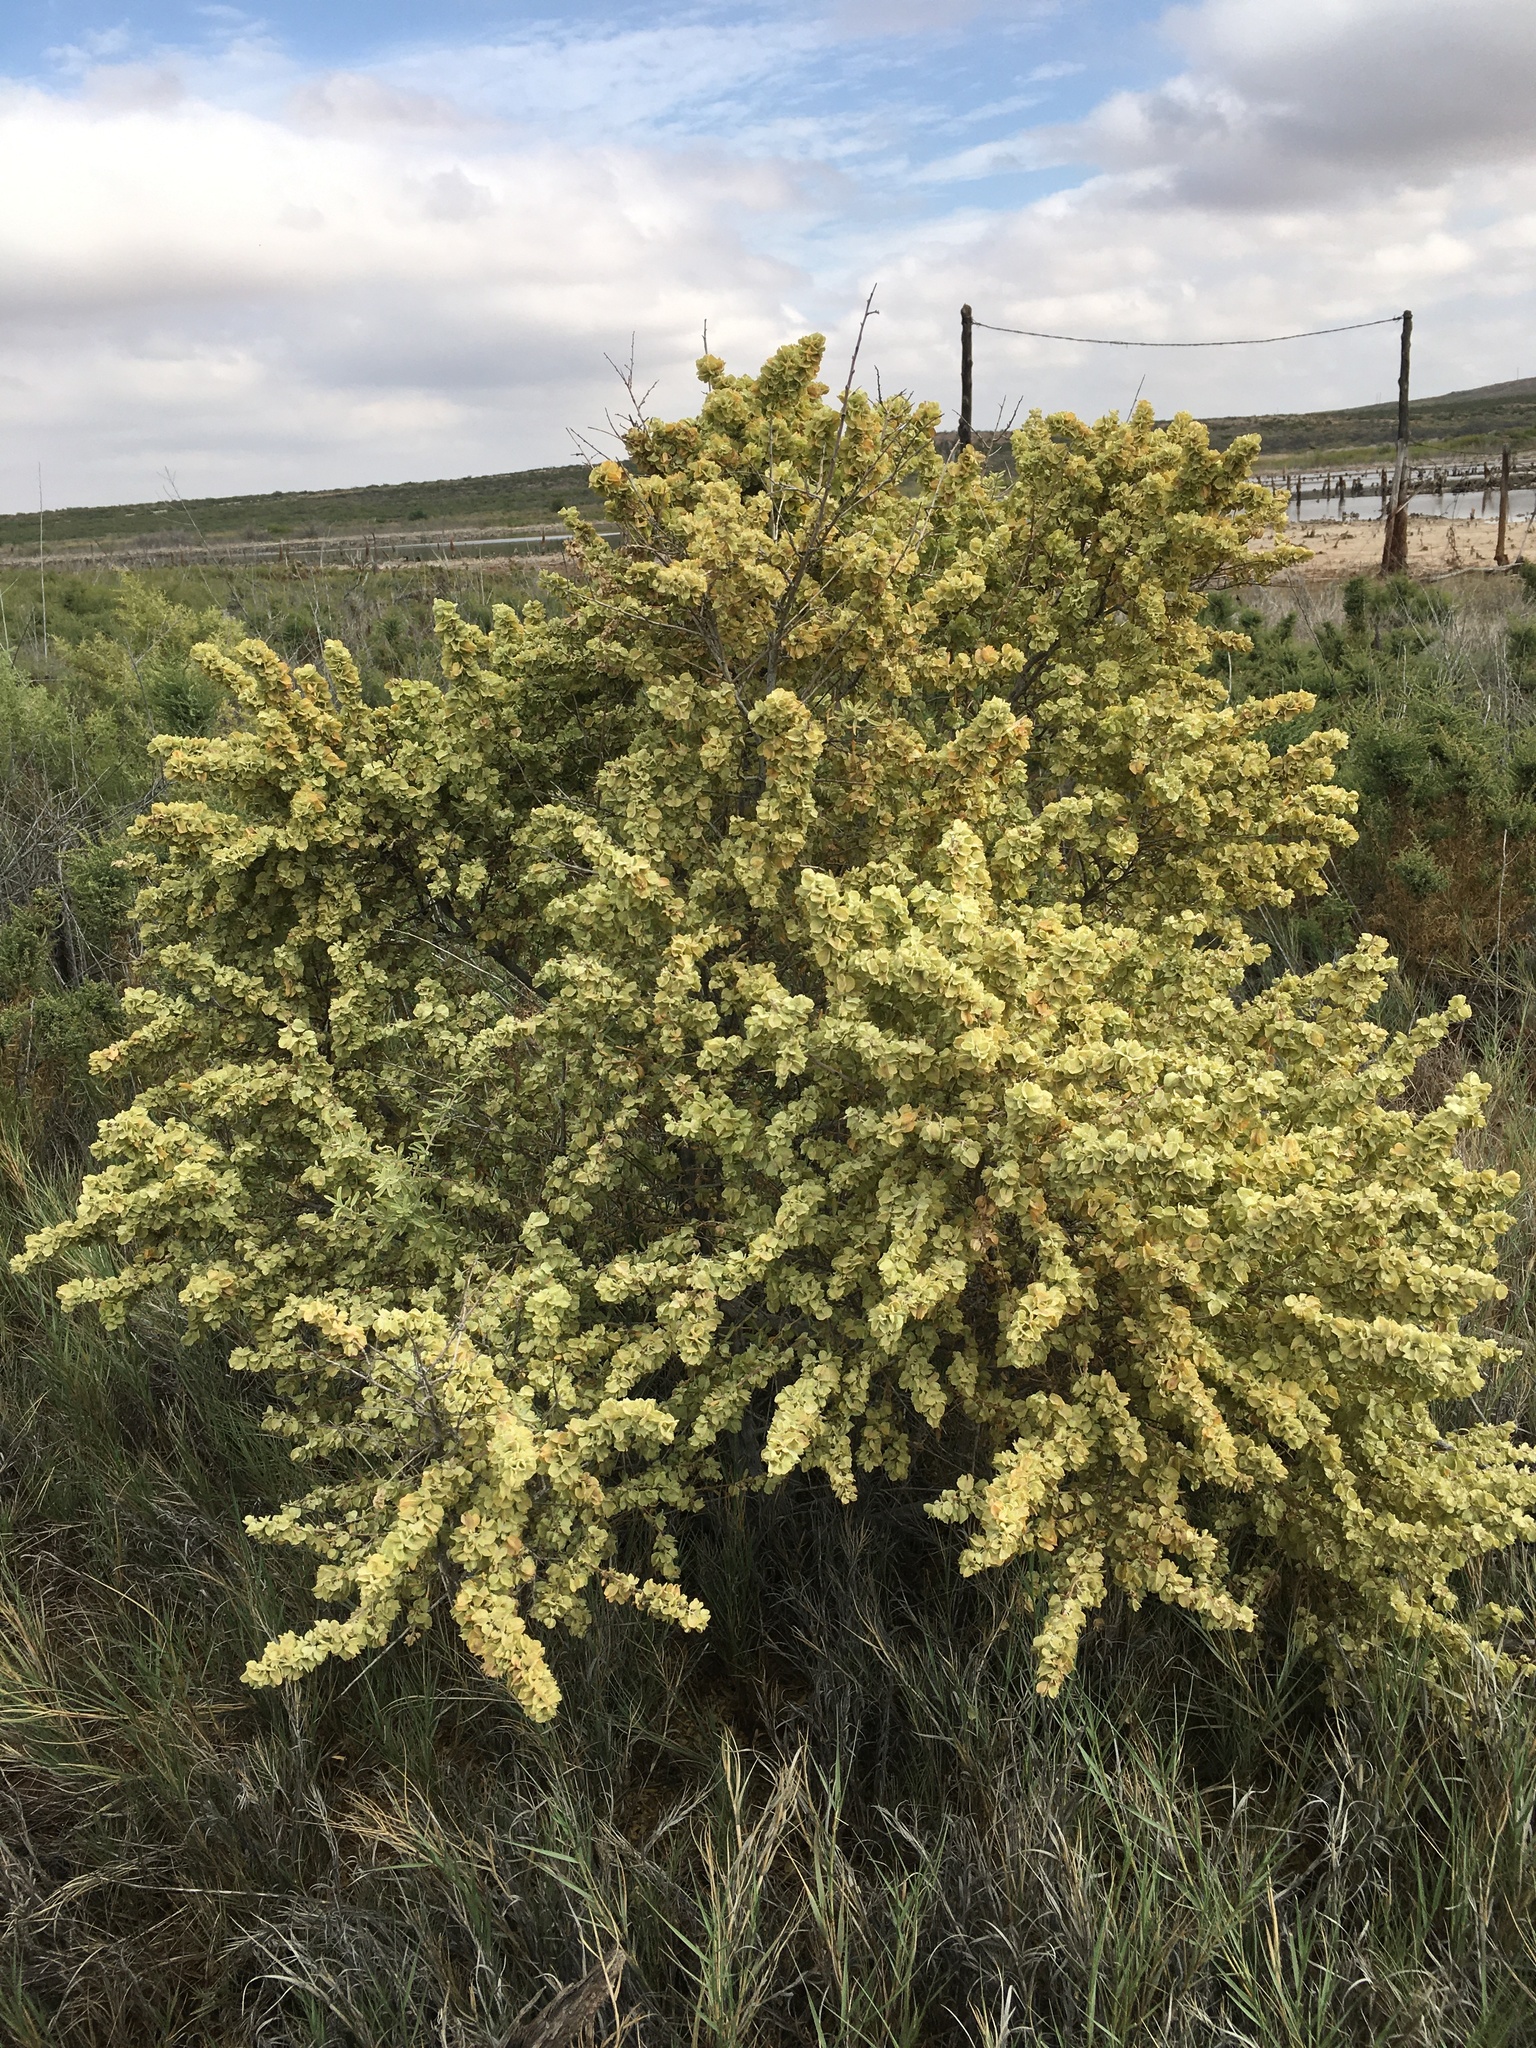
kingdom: Plantae
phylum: Tracheophyta
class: Magnoliopsida
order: Caryophyllales
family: Amaranthaceae
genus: Atriplex
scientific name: Atriplex canescens
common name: Four-wing saltbush
